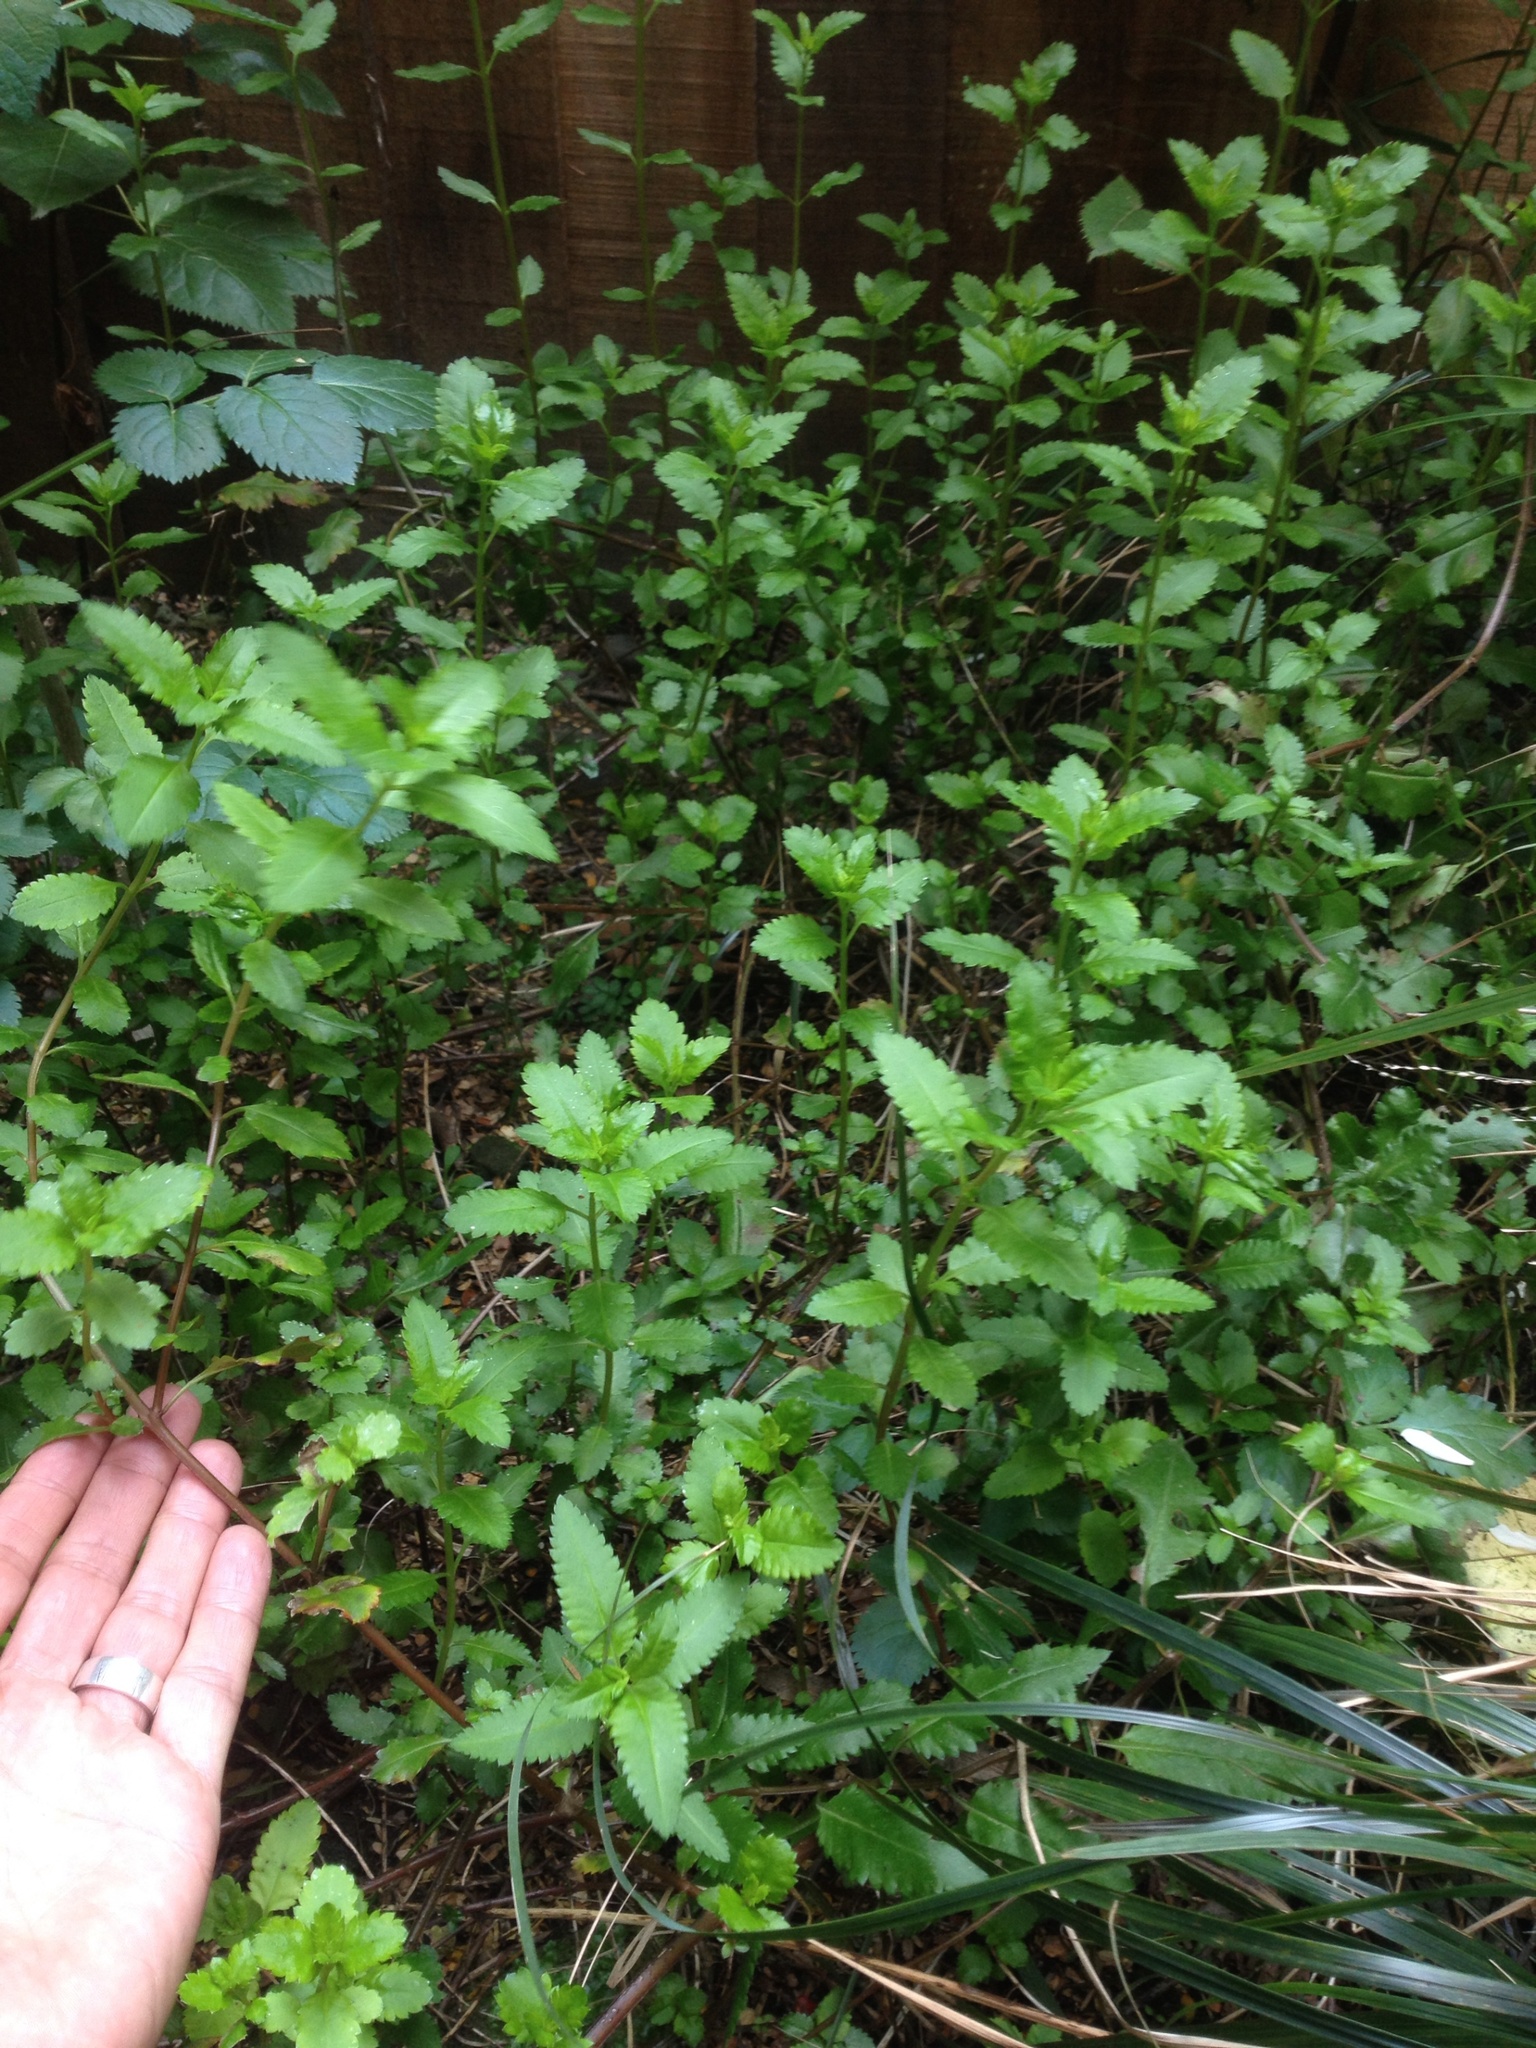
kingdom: Plantae
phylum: Tracheophyta
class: Magnoliopsida
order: Saxifragales
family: Haloragaceae
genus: Haloragis
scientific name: Haloragis erecta
